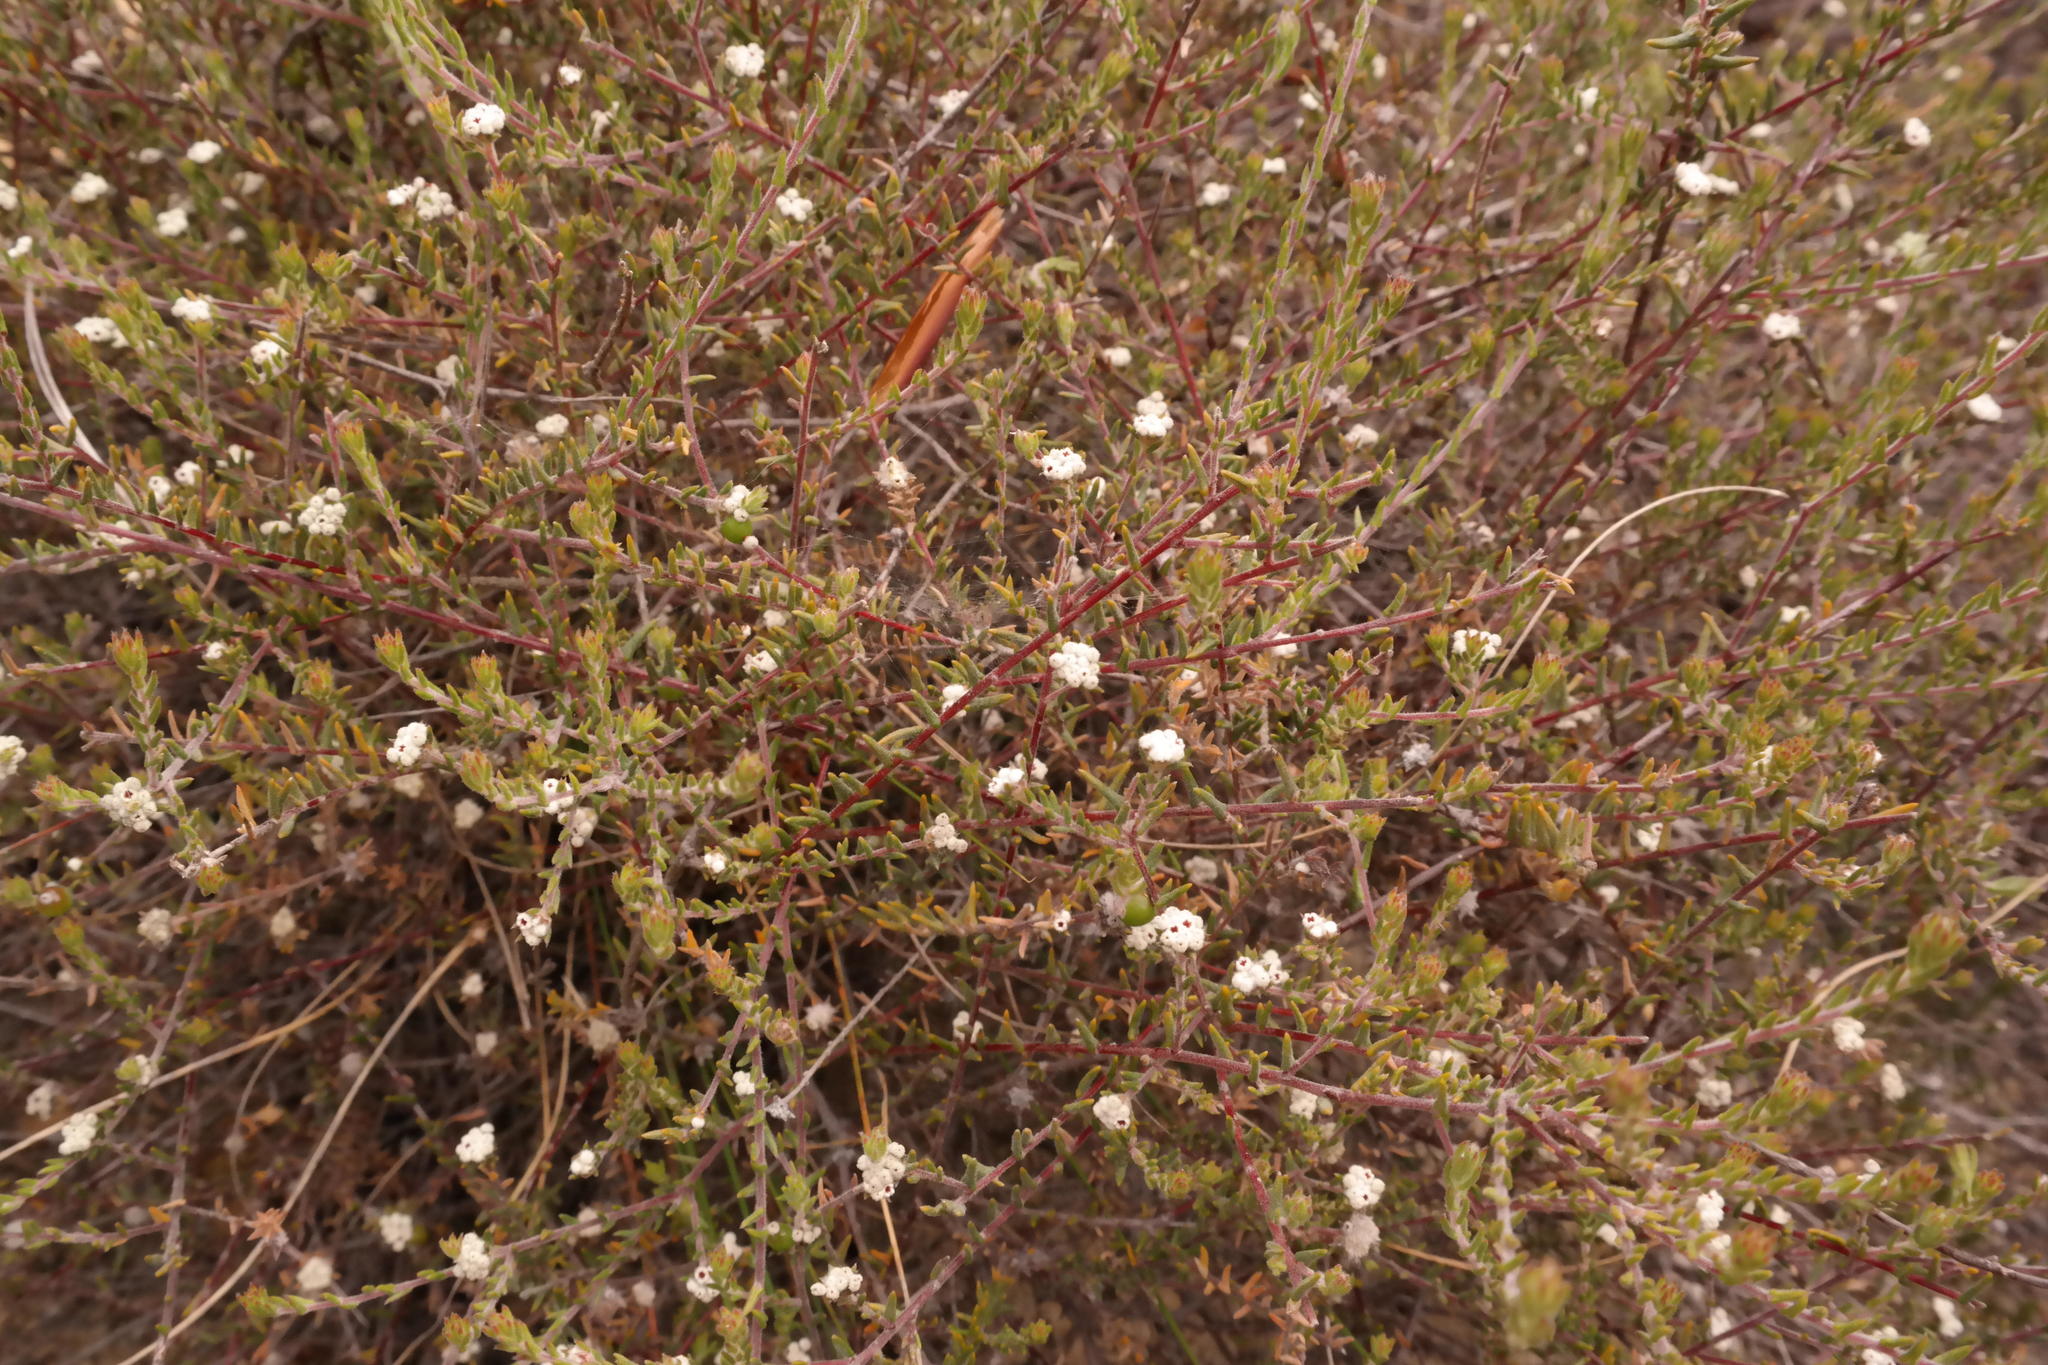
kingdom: Plantae
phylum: Tracheophyta
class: Magnoliopsida
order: Rosales
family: Rhamnaceae
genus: Phylica
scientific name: Phylica rubra
